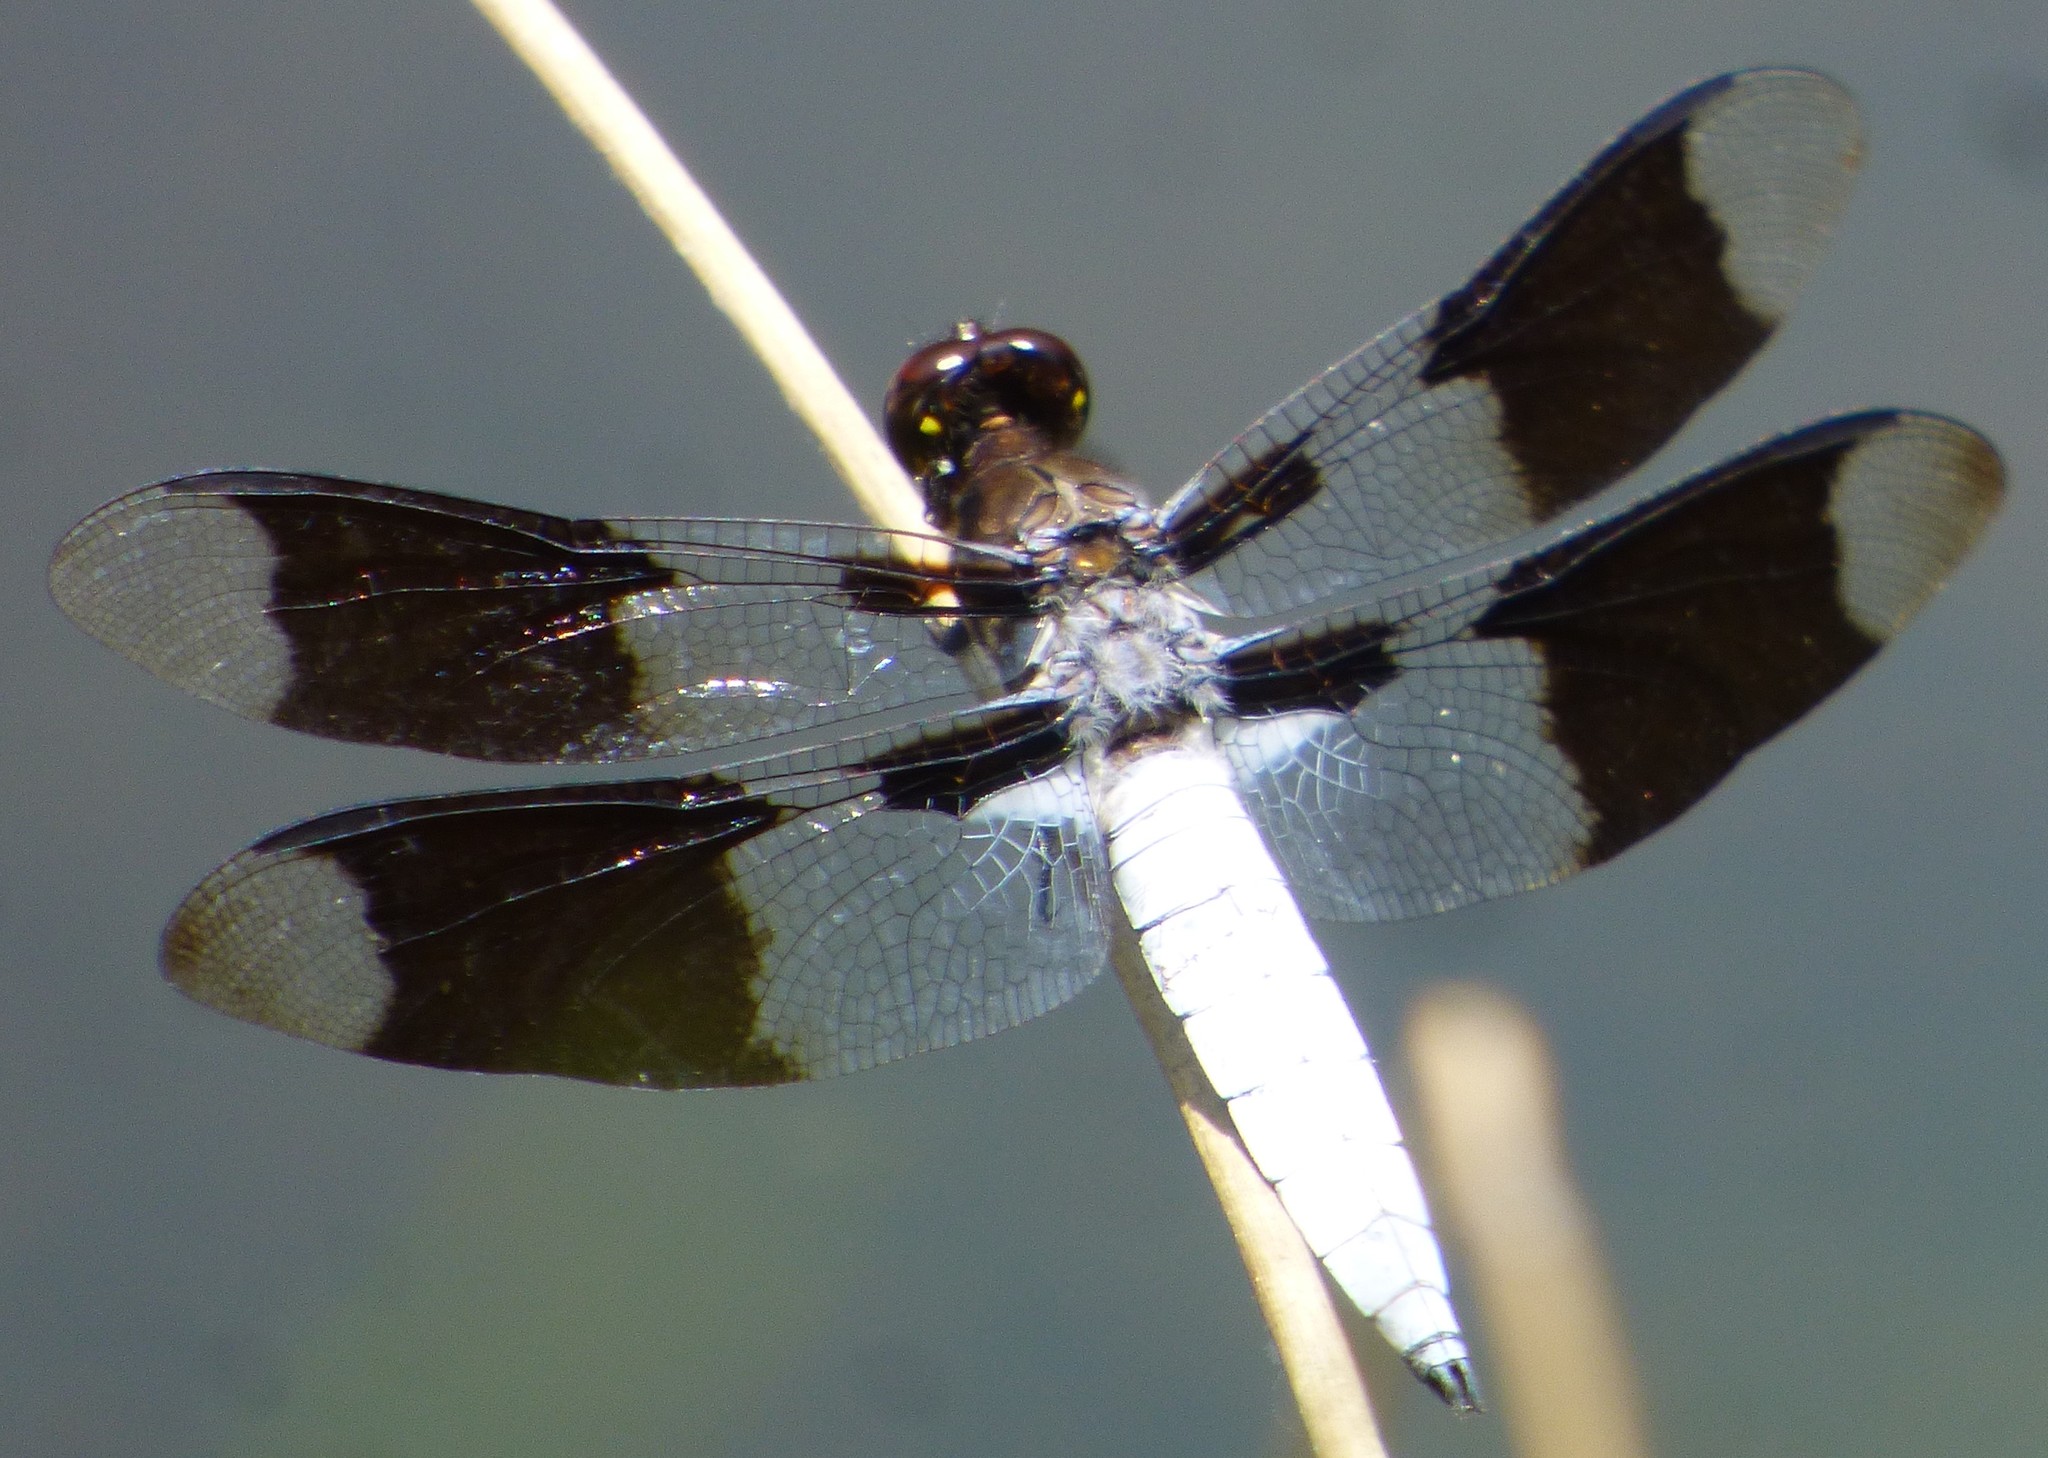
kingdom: Animalia
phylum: Arthropoda
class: Insecta
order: Odonata
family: Libellulidae
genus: Plathemis
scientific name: Plathemis lydia
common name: Common whitetail
